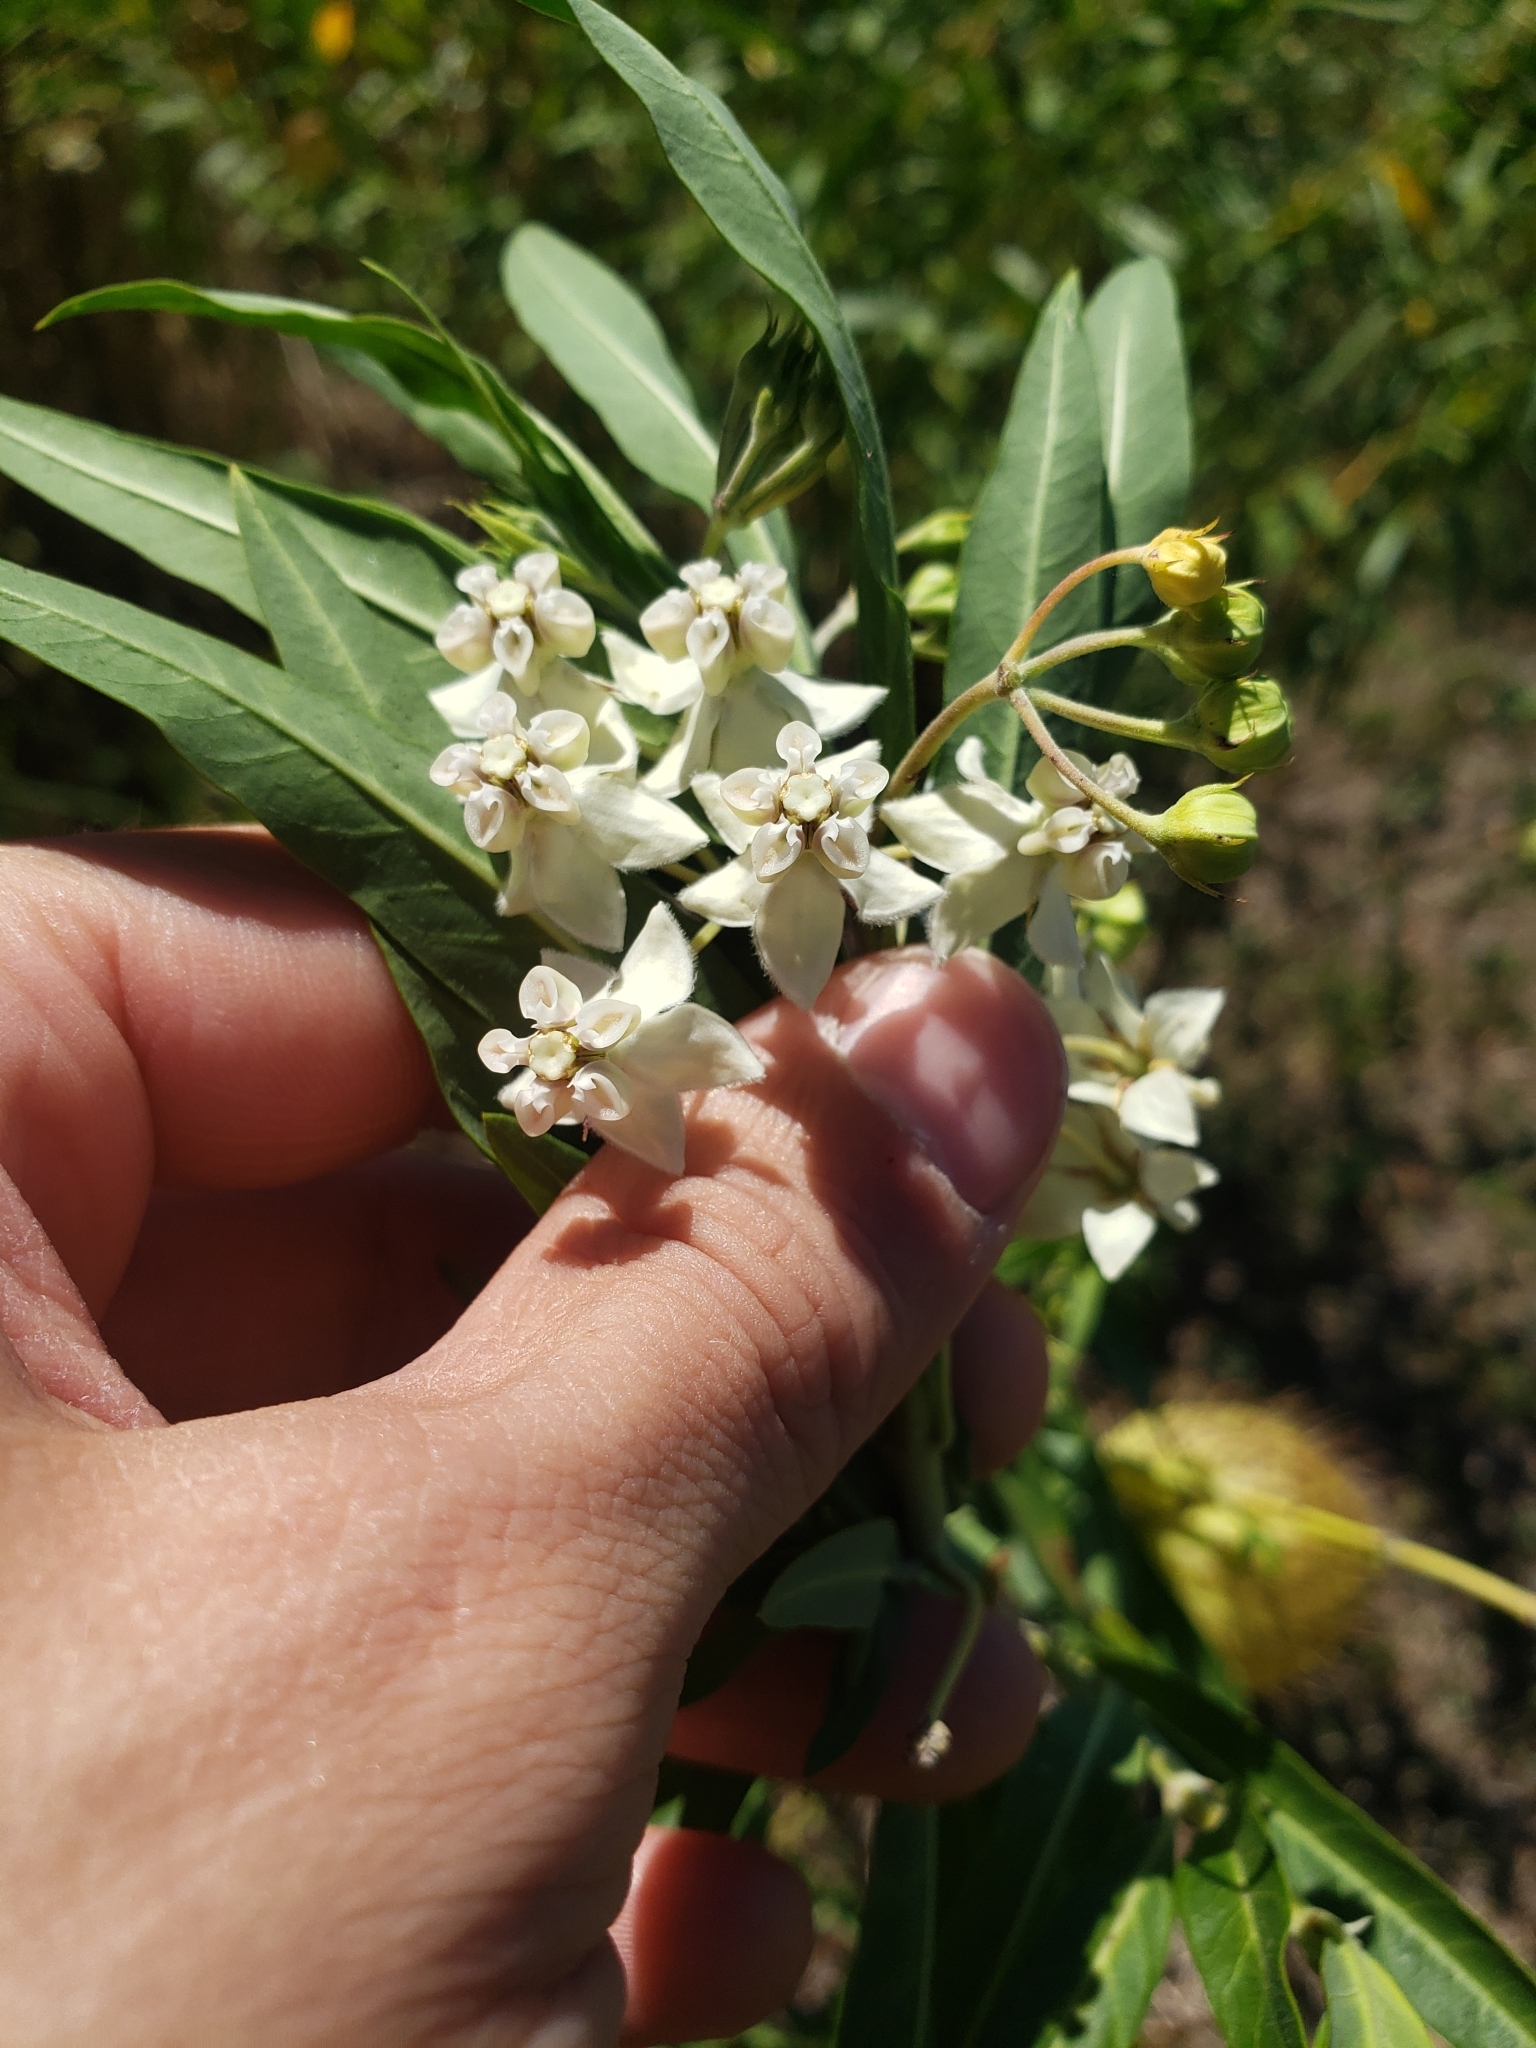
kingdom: Plantae
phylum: Tracheophyta
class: Magnoliopsida
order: Gentianales
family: Apocynaceae
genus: Gomphocarpus
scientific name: Gomphocarpus physocarpus
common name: Balloon cotton bush
